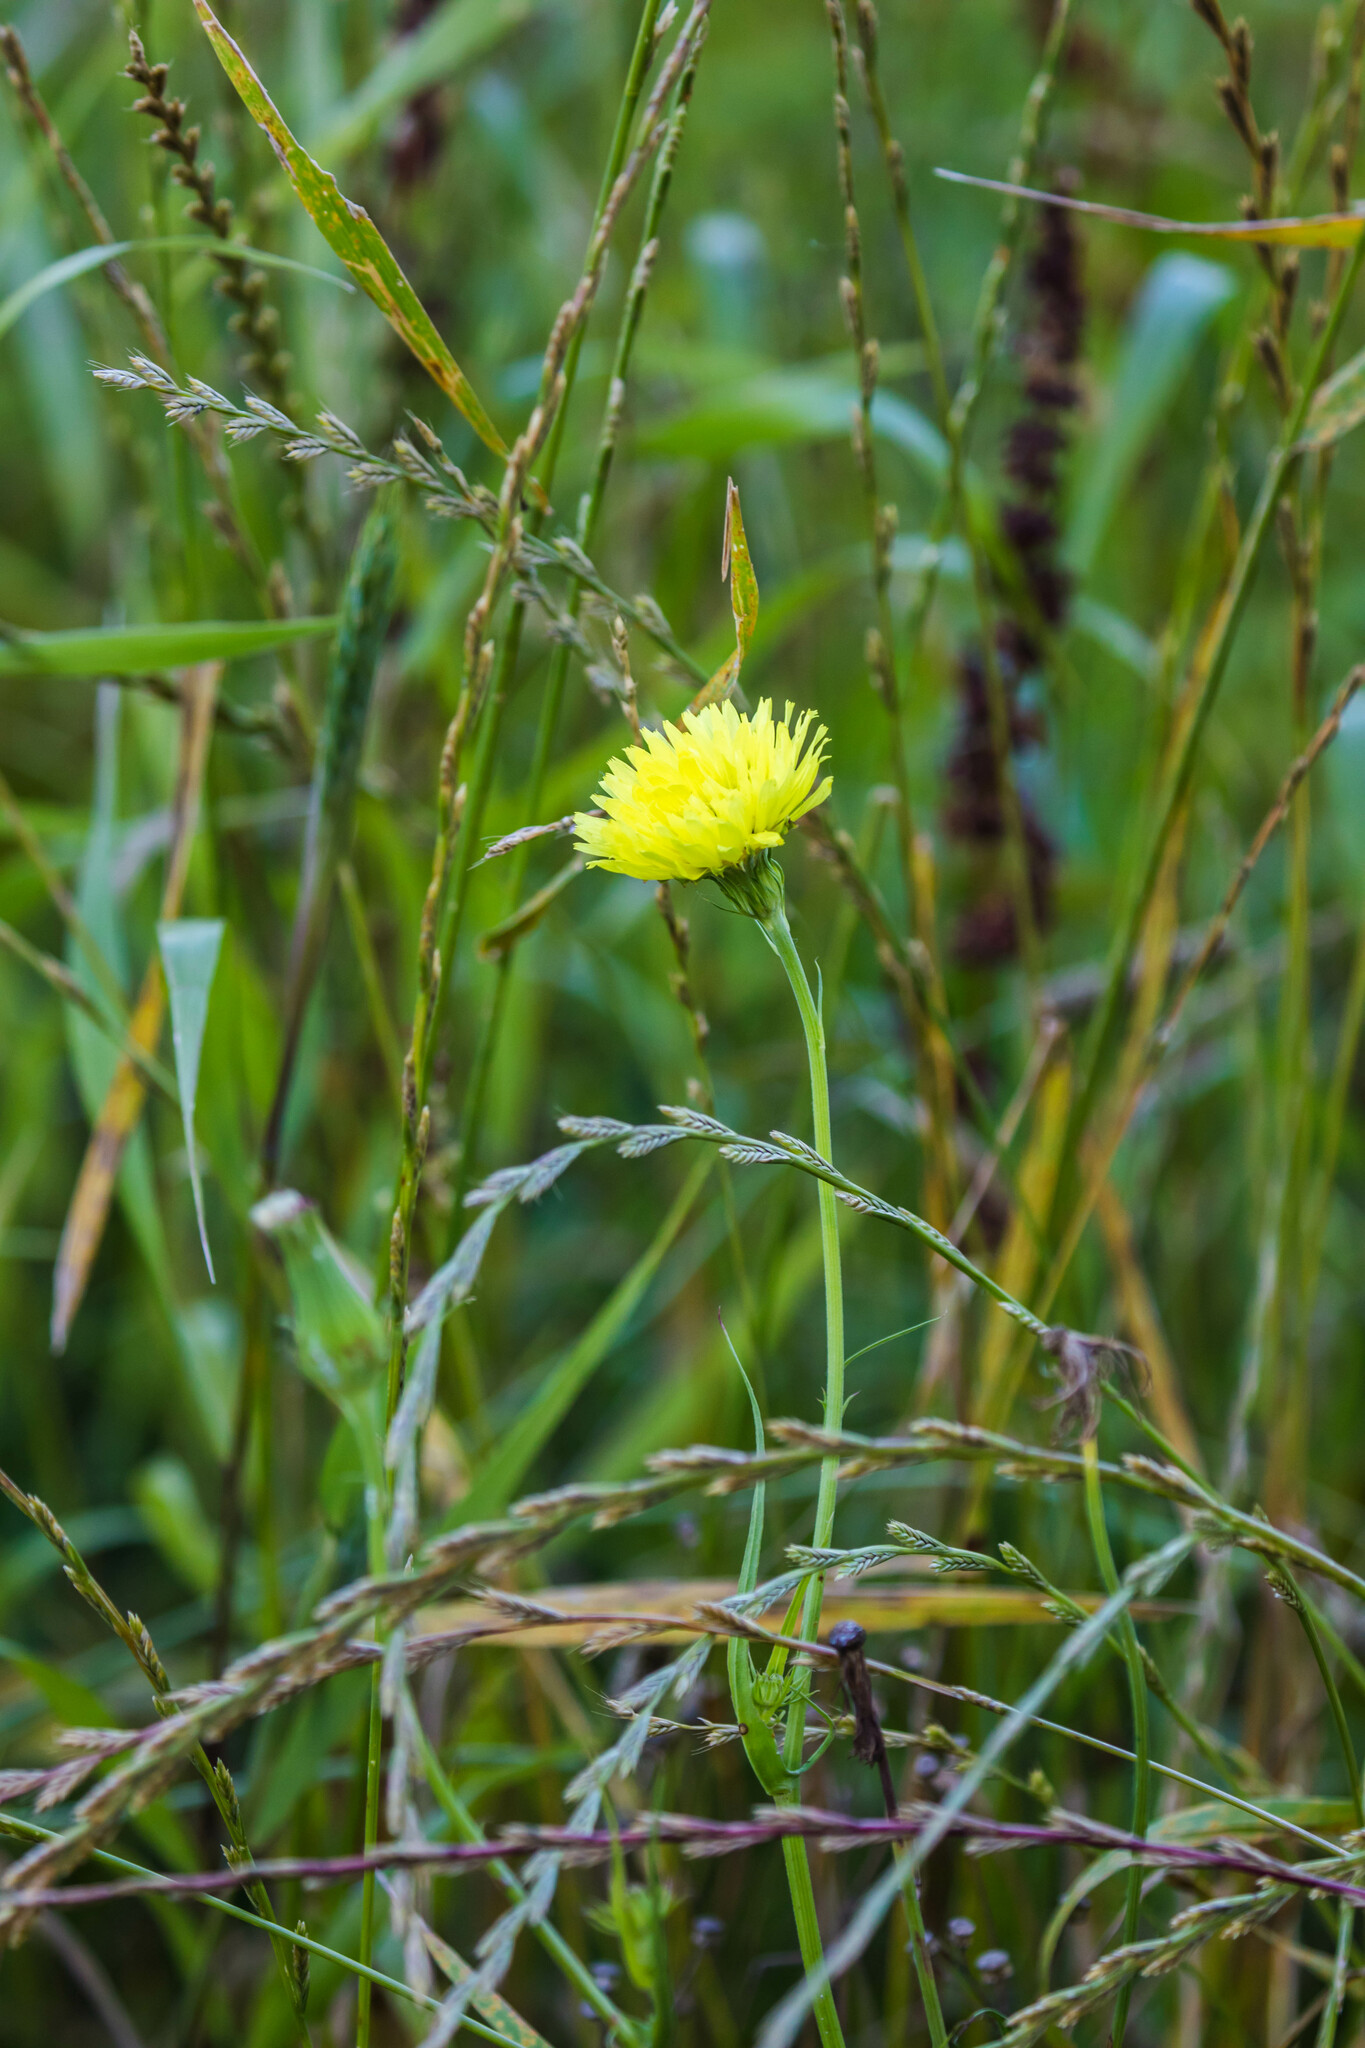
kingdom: Plantae
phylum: Tracheophyta
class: Magnoliopsida
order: Asterales
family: Asteraceae
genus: Pyrrhopappus
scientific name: Pyrrhopappus carolinianus
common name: Carolina desert-chicory
